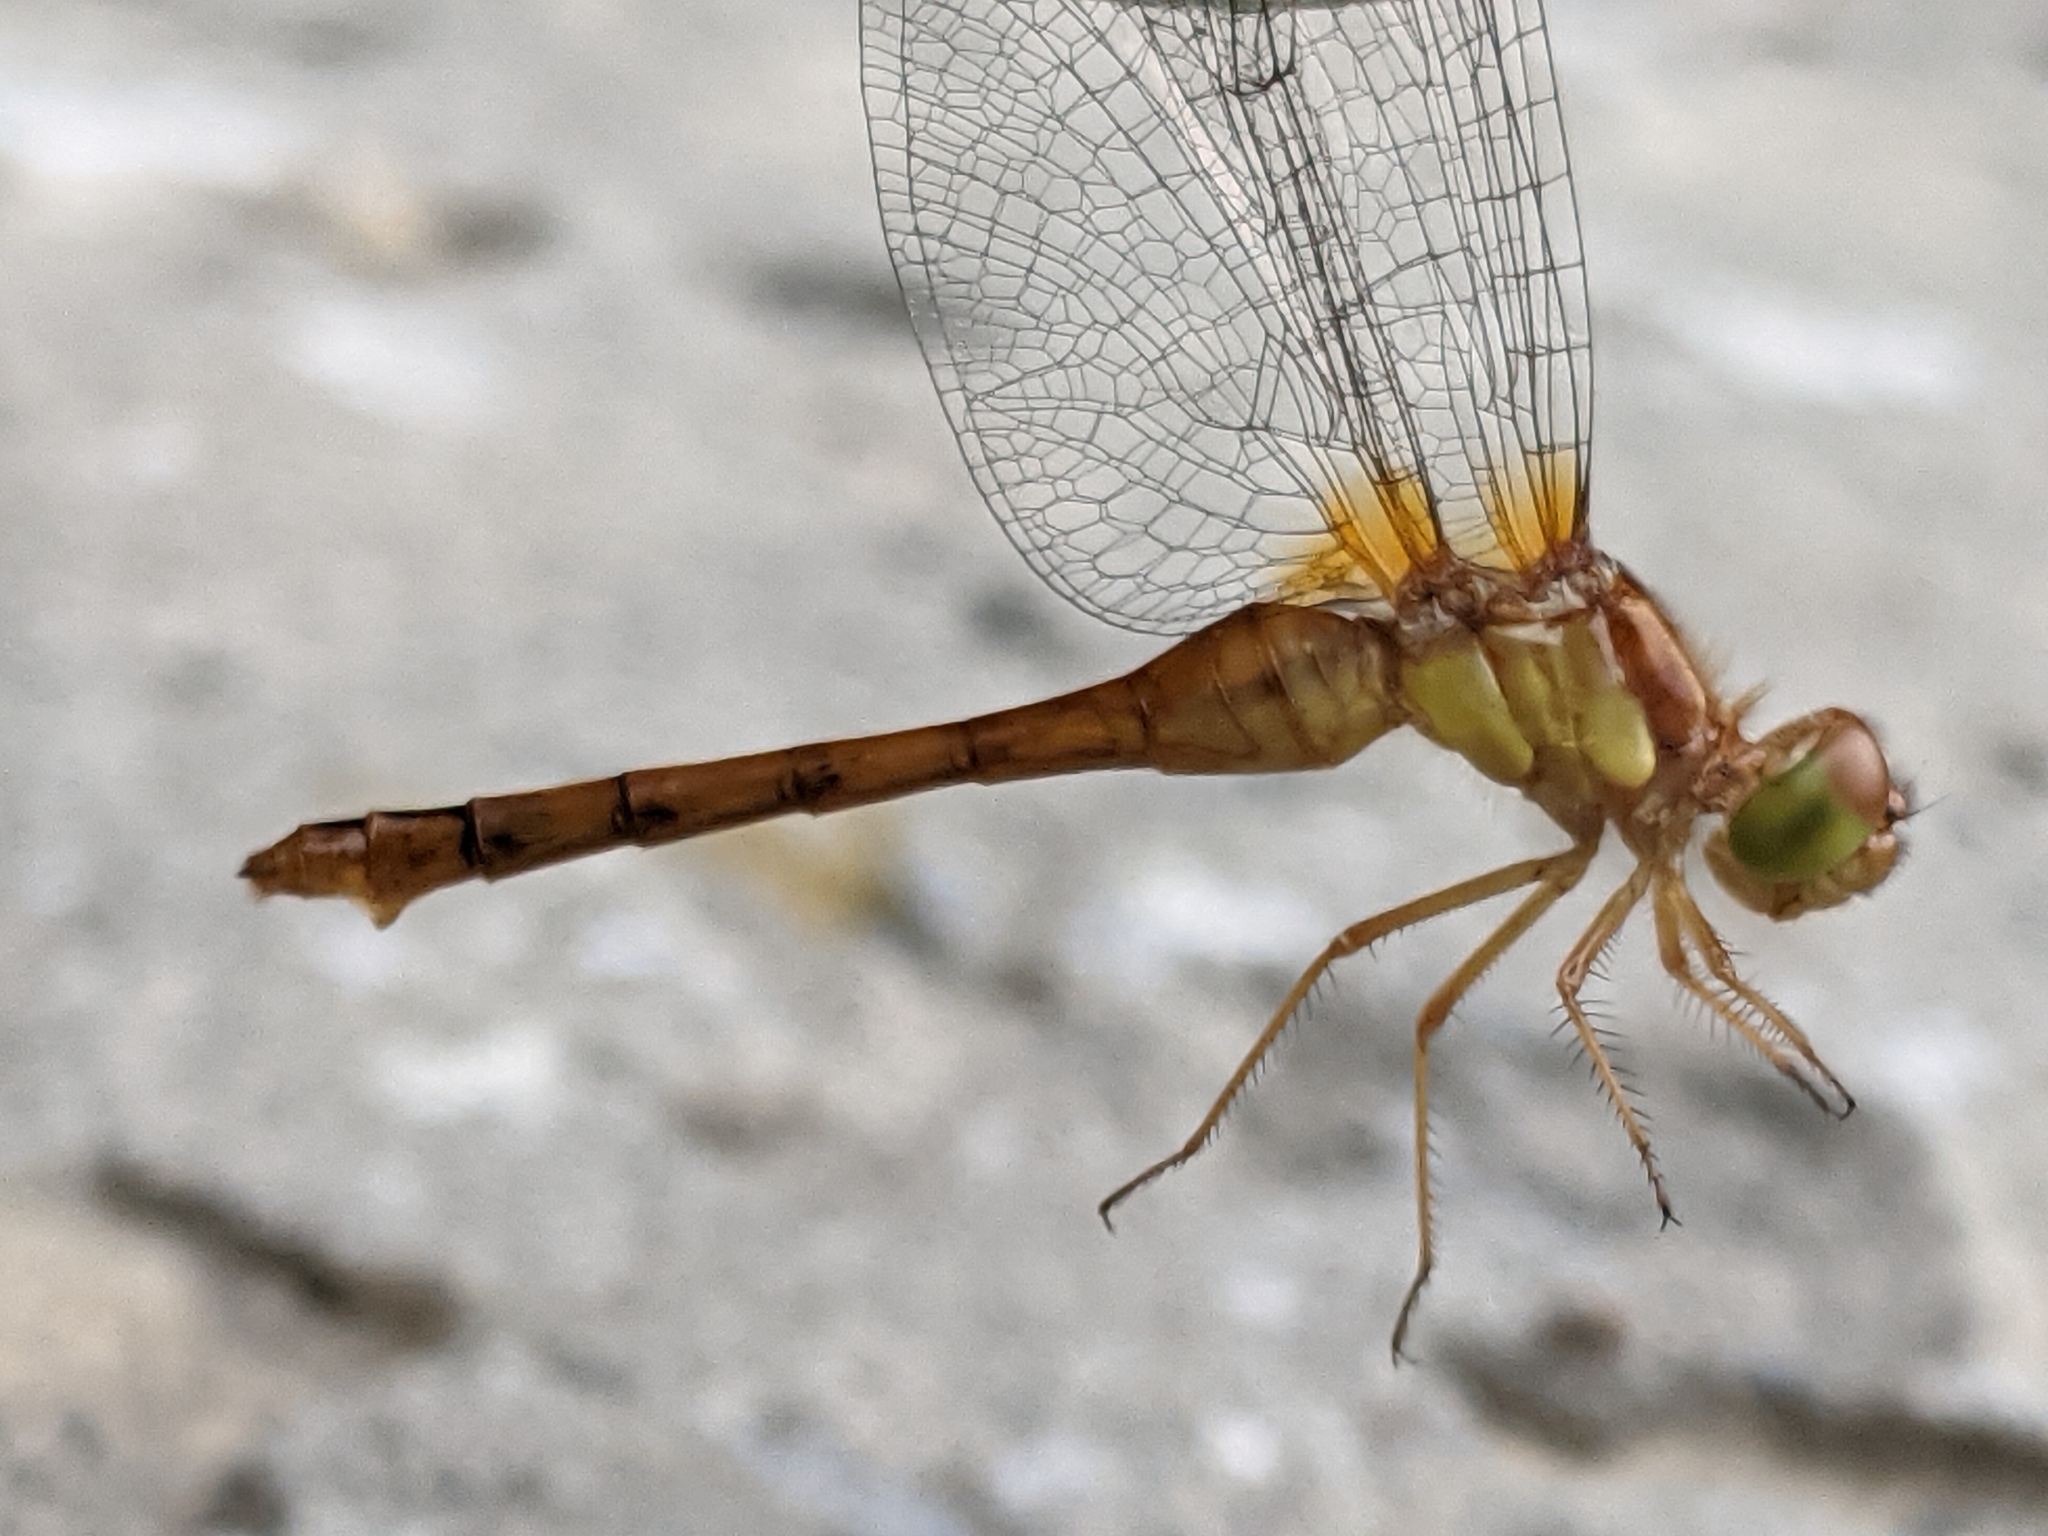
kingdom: Animalia
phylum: Arthropoda
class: Insecta
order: Odonata
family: Libellulidae
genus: Sympetrum
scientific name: Sympetrum vicinum
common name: Autumn meadowhawk
